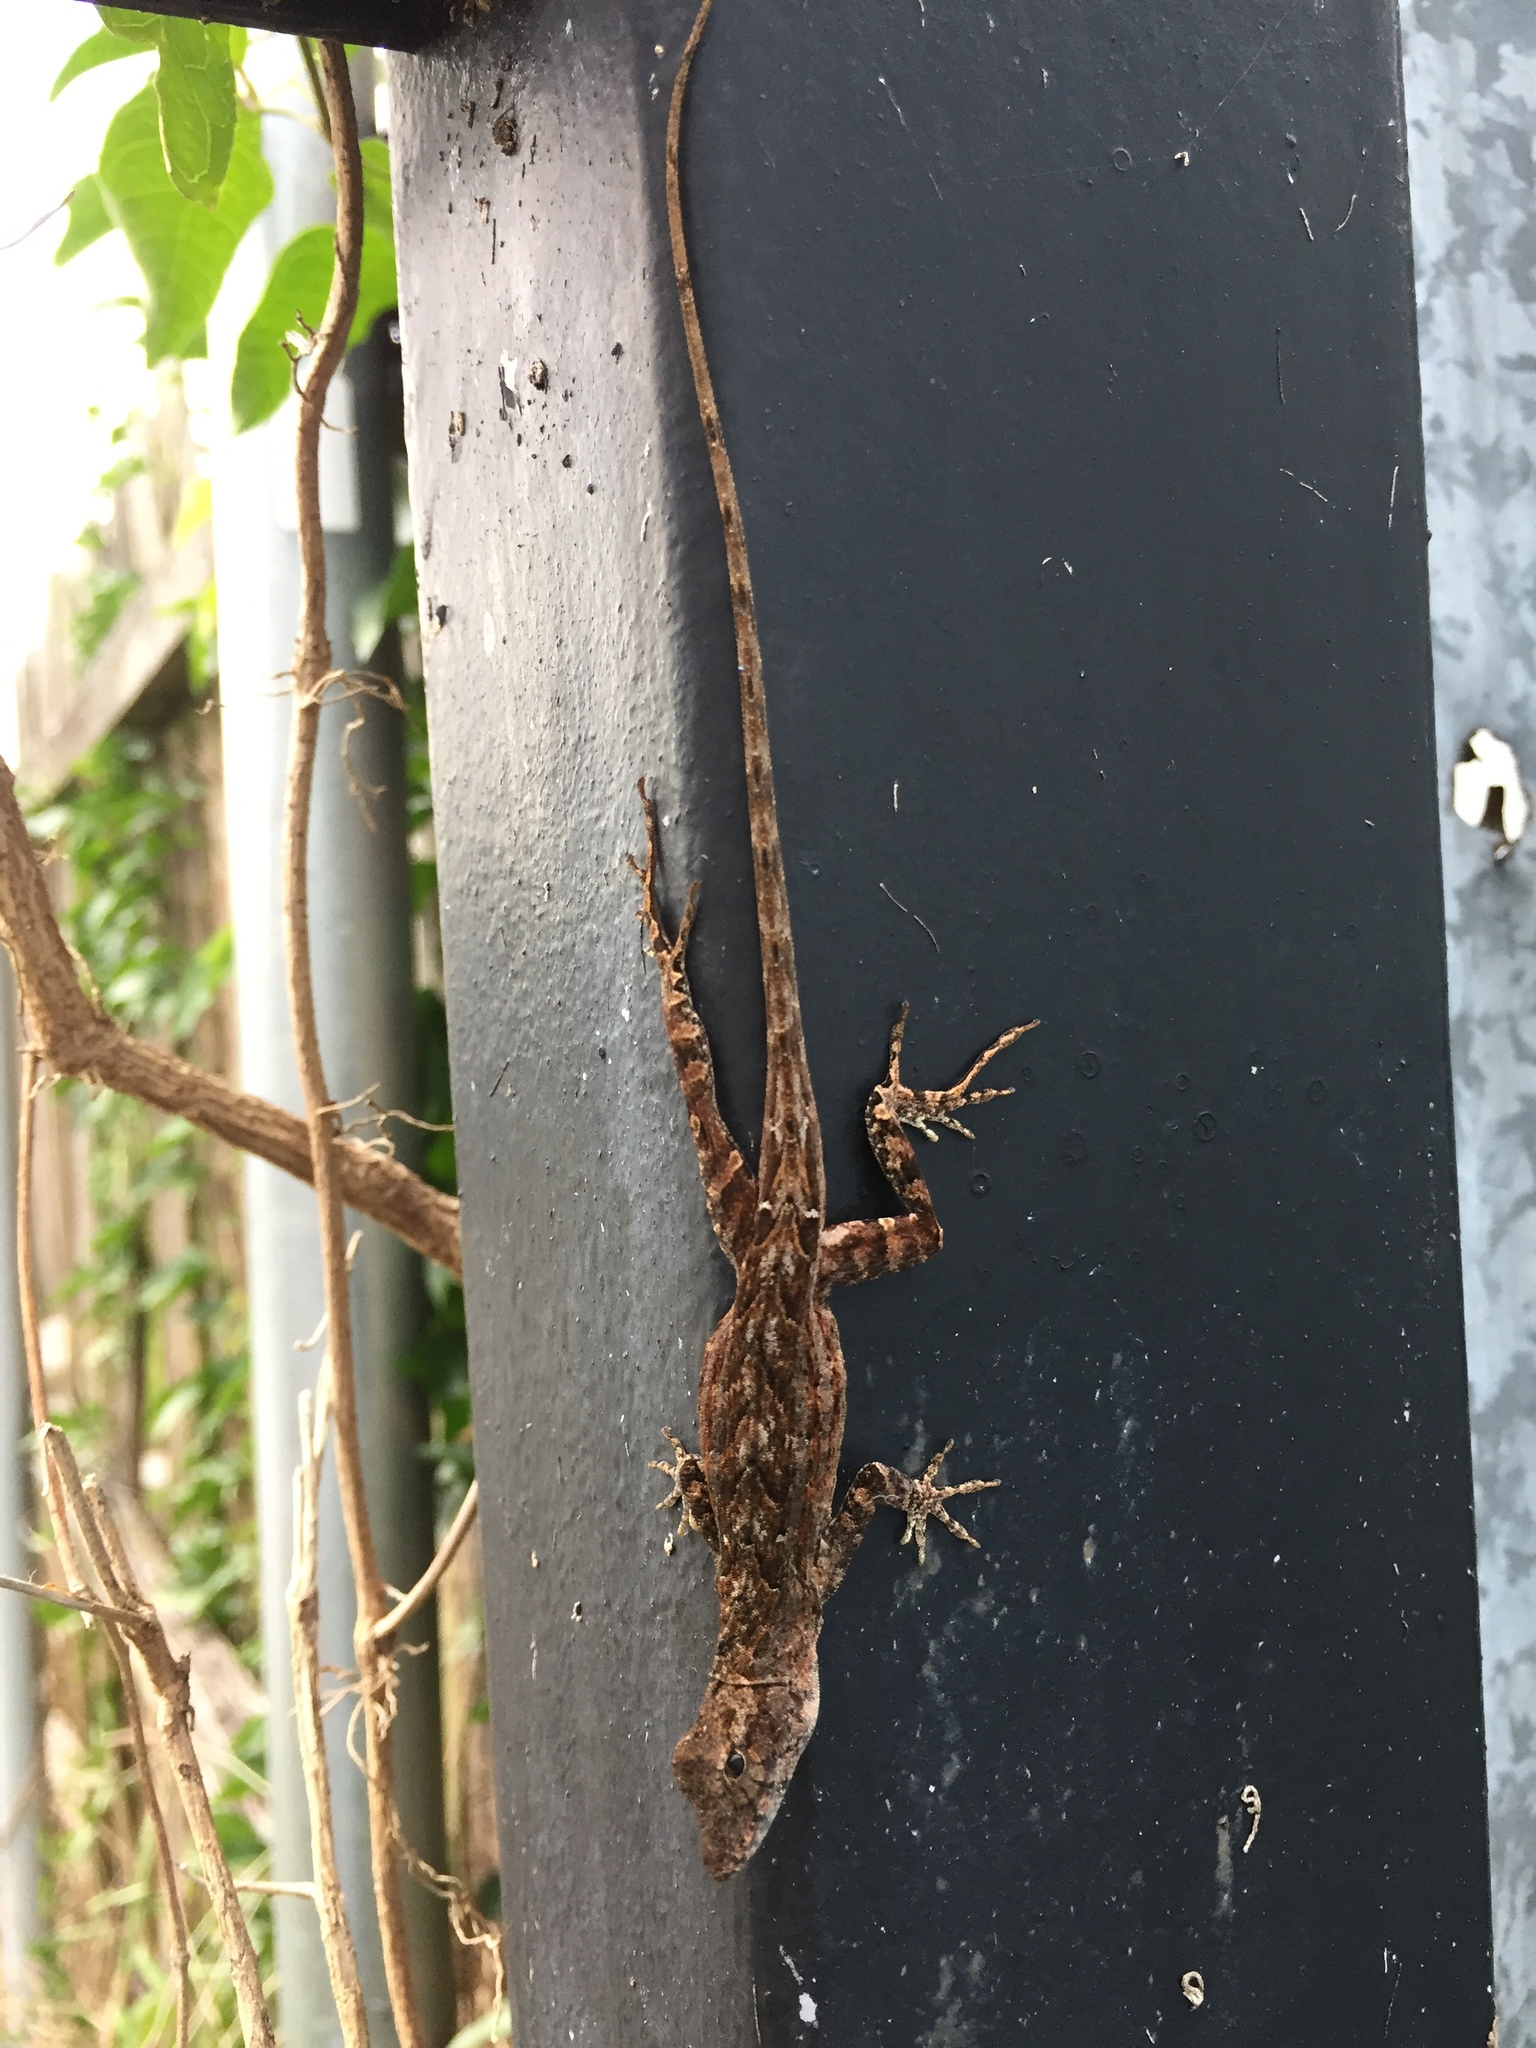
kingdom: Animalia
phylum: Chordata
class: Squamata
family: Dactyloidae
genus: Anolis
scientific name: Anolis sagrei
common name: Brown anole
